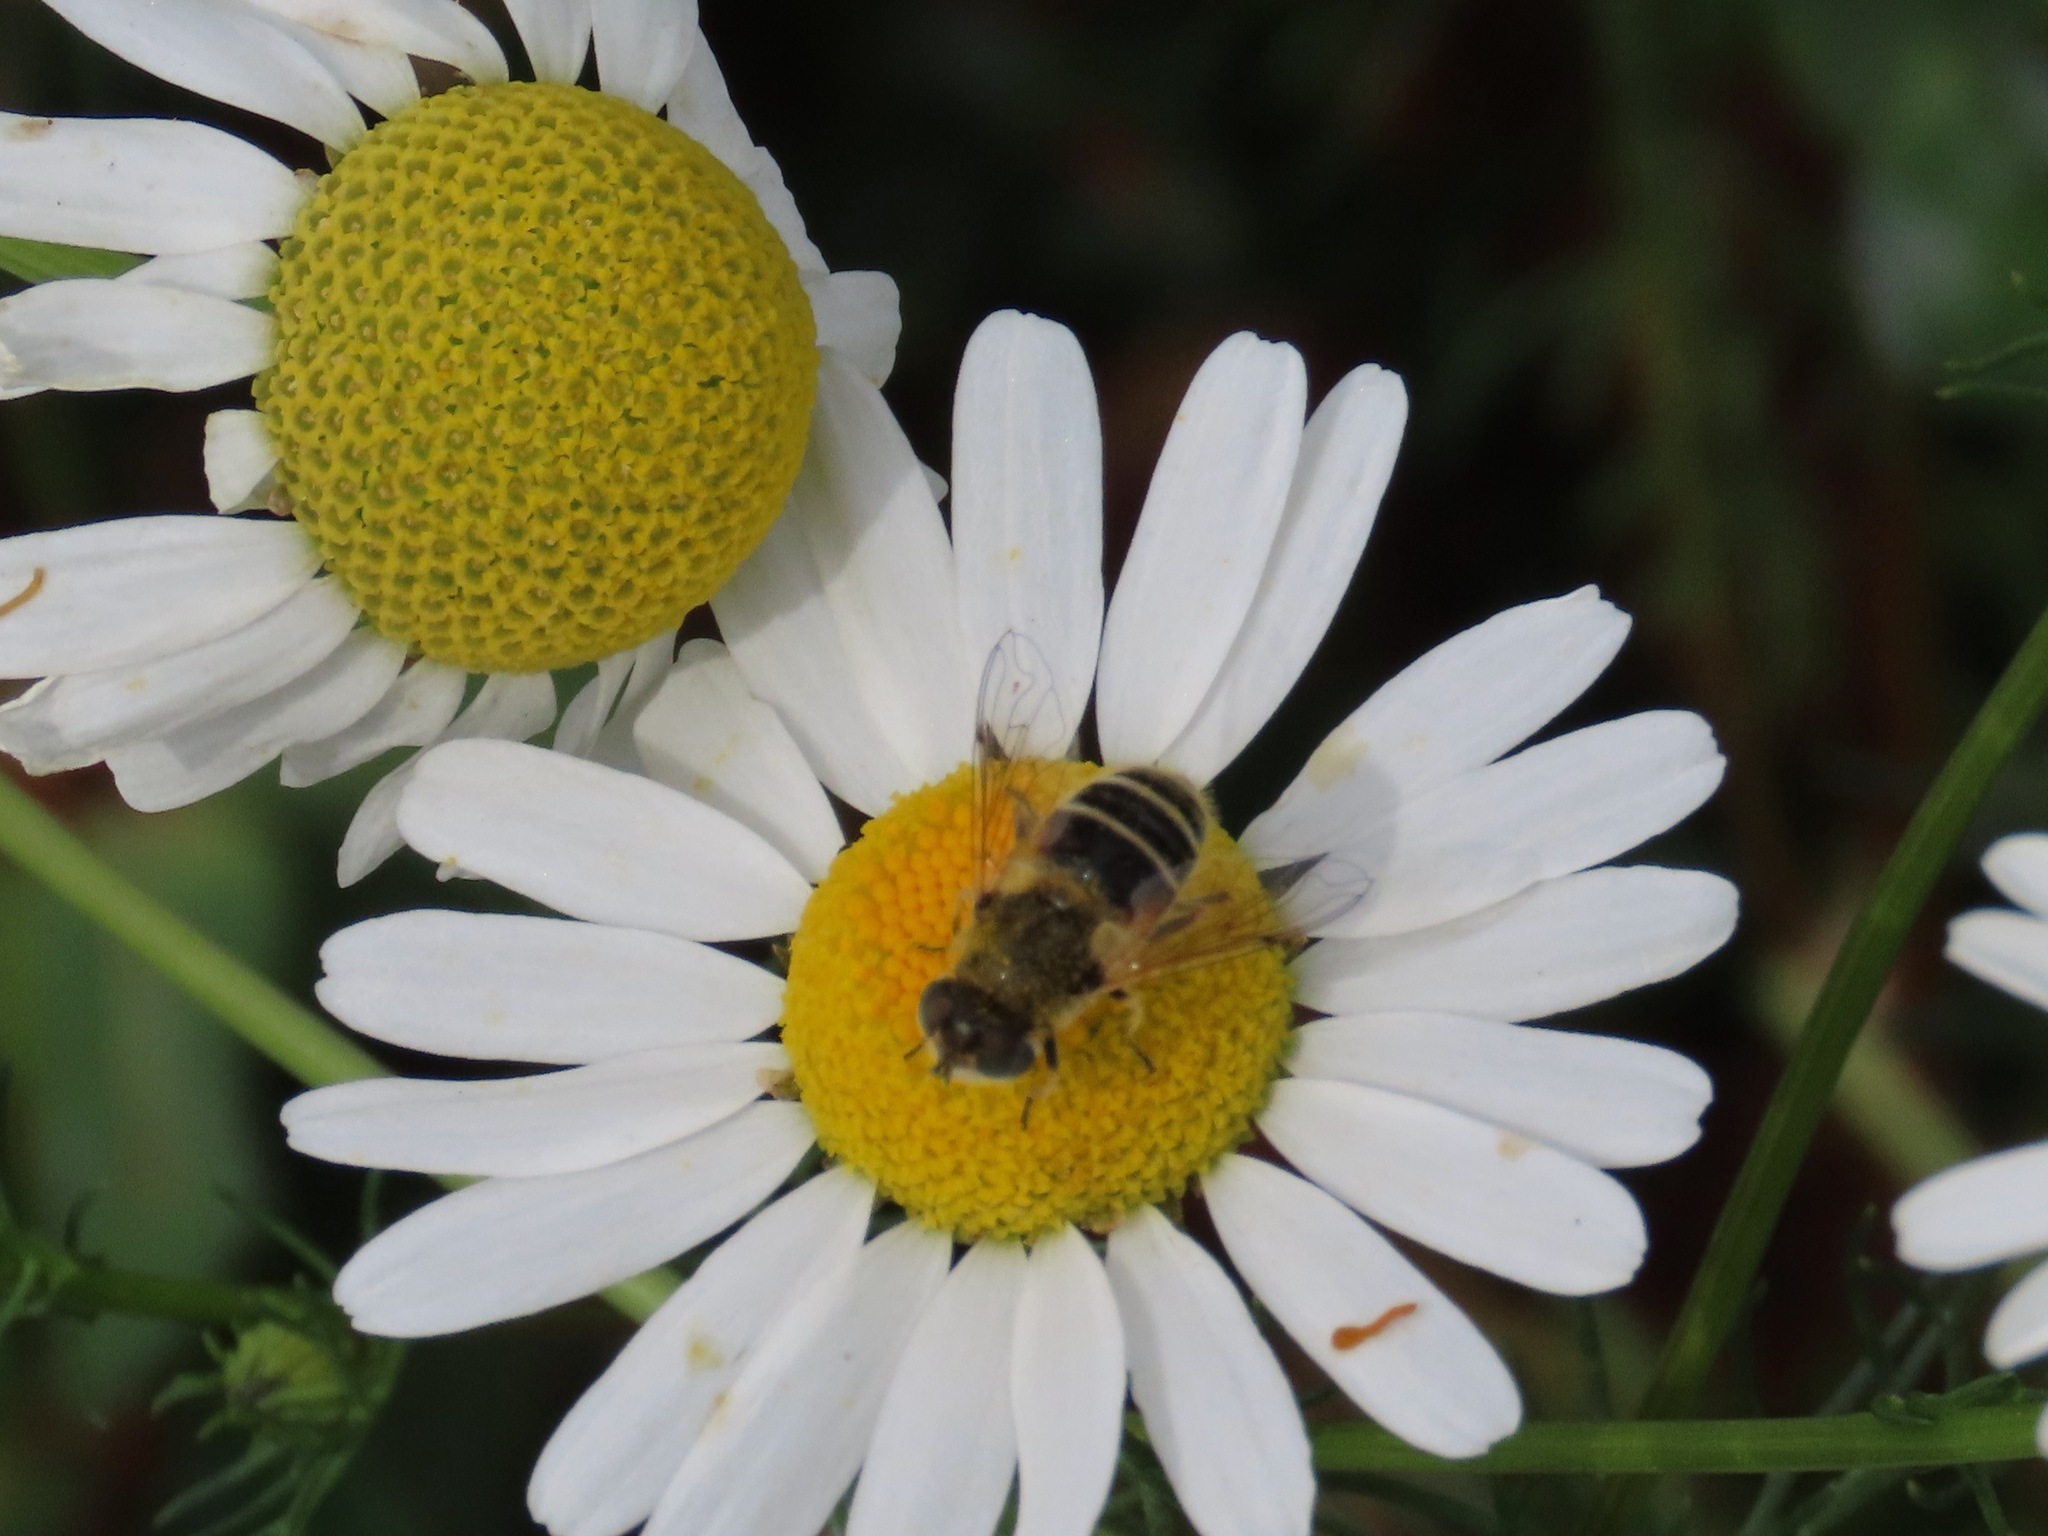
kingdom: Animalia
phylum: Arthropoda
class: Insecta
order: Diptera
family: Syrphidae
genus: Eristalis
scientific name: Eristalis arbustorum
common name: Hover fly
